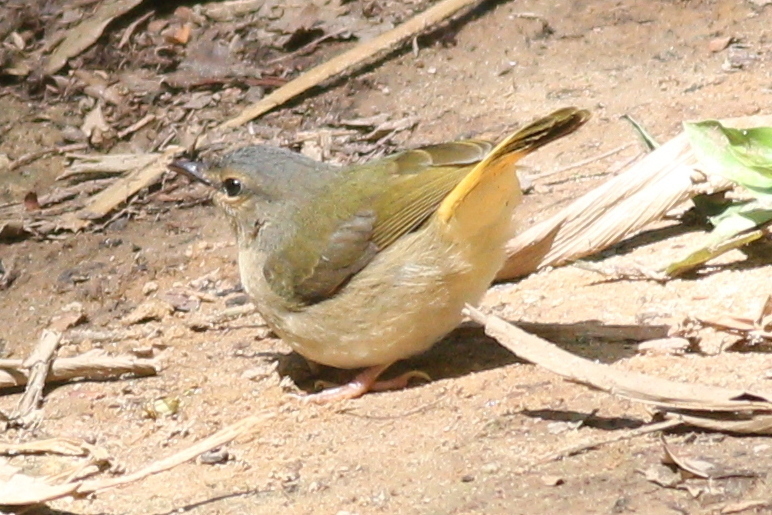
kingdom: Animalia
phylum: Chordata
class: Aves
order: Passeriformes
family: Parulidae
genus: Myiothlypis
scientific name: Myiothlypis fulvicauda
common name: Buff-rumped warbler
